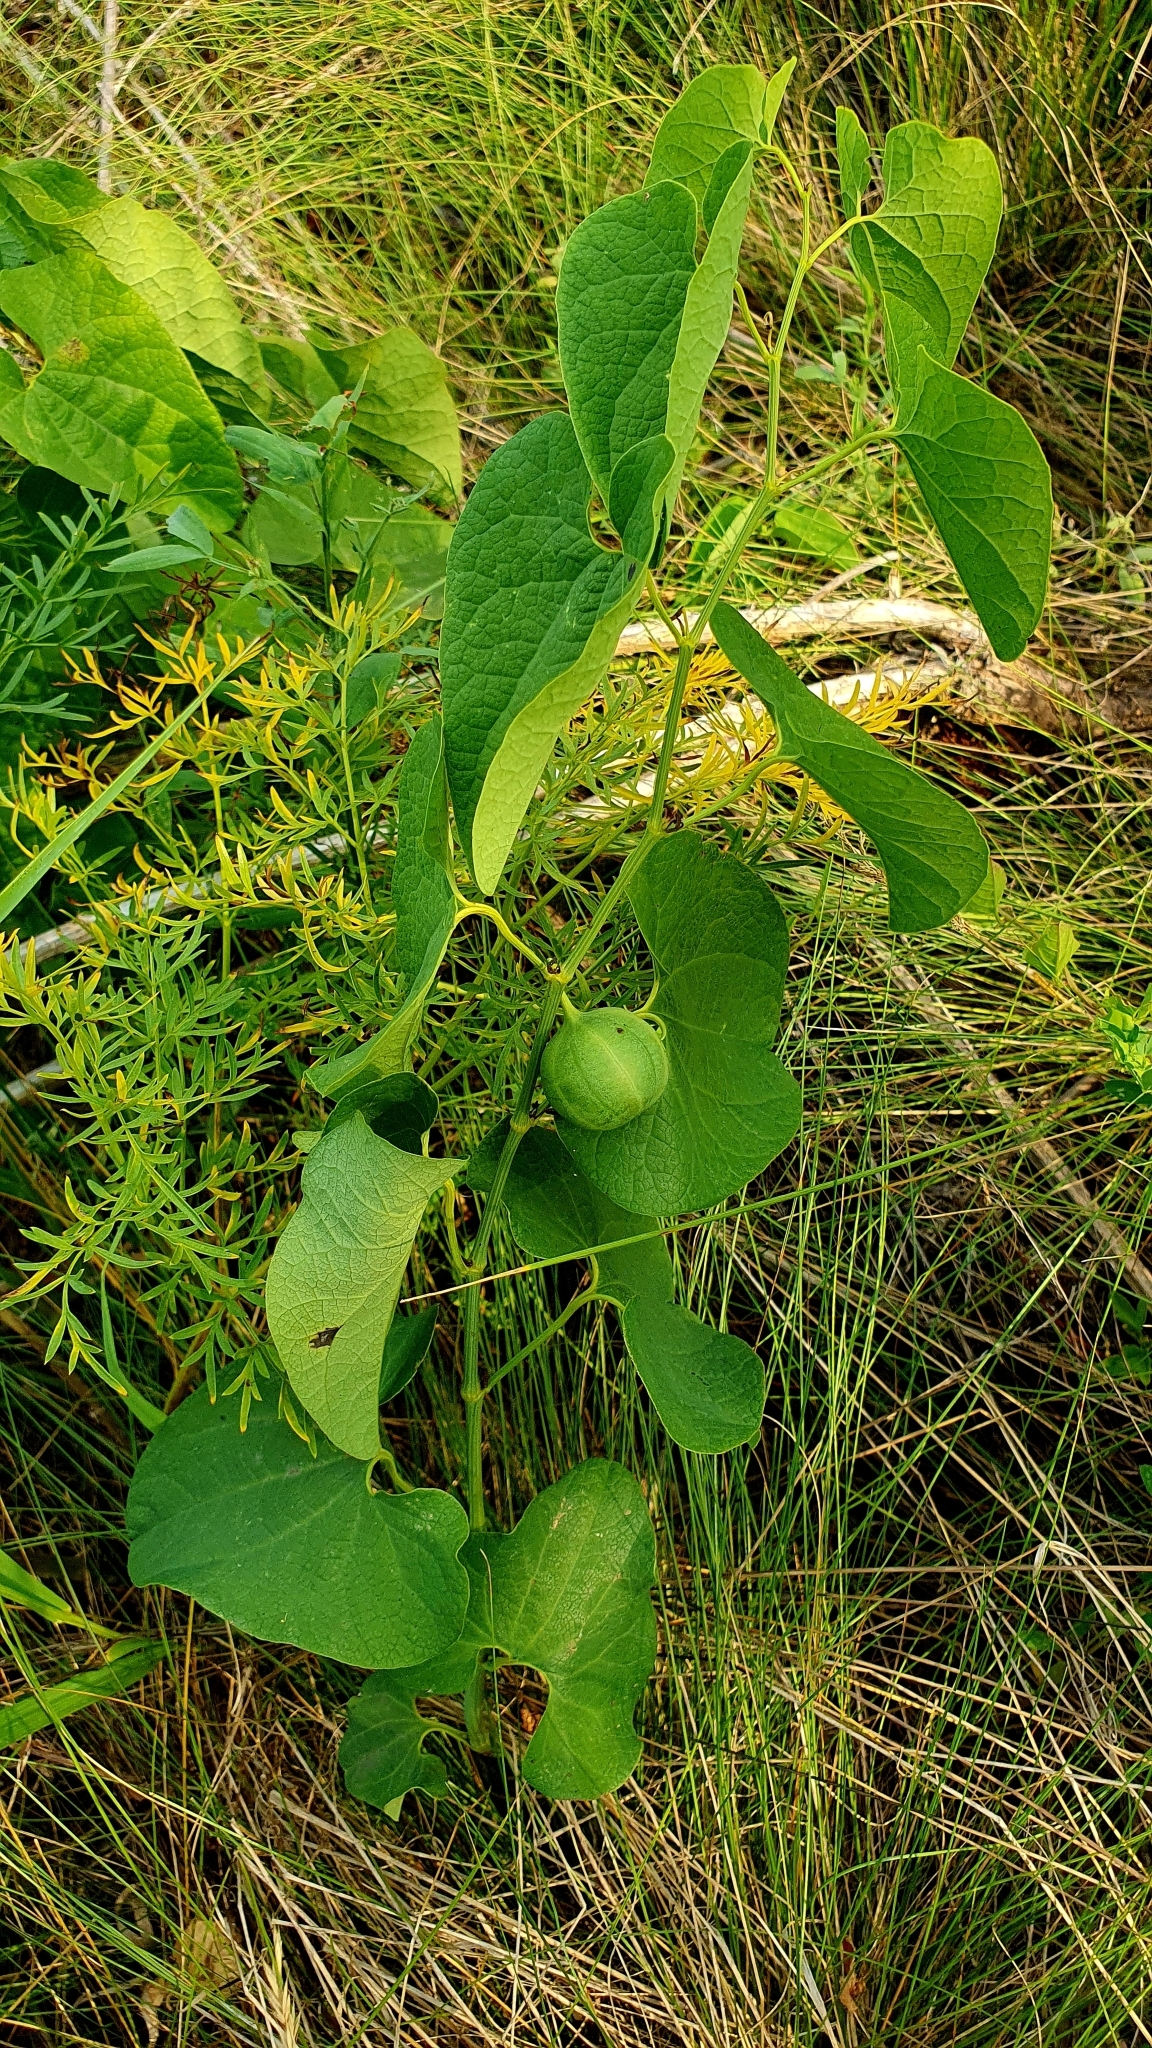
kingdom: Plantae
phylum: Tracheophyta
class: Magnoliopsida
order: Piperales
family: Aristolochiaceae
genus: Aristolochia
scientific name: Aristolochia clematitis
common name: Birthwort
